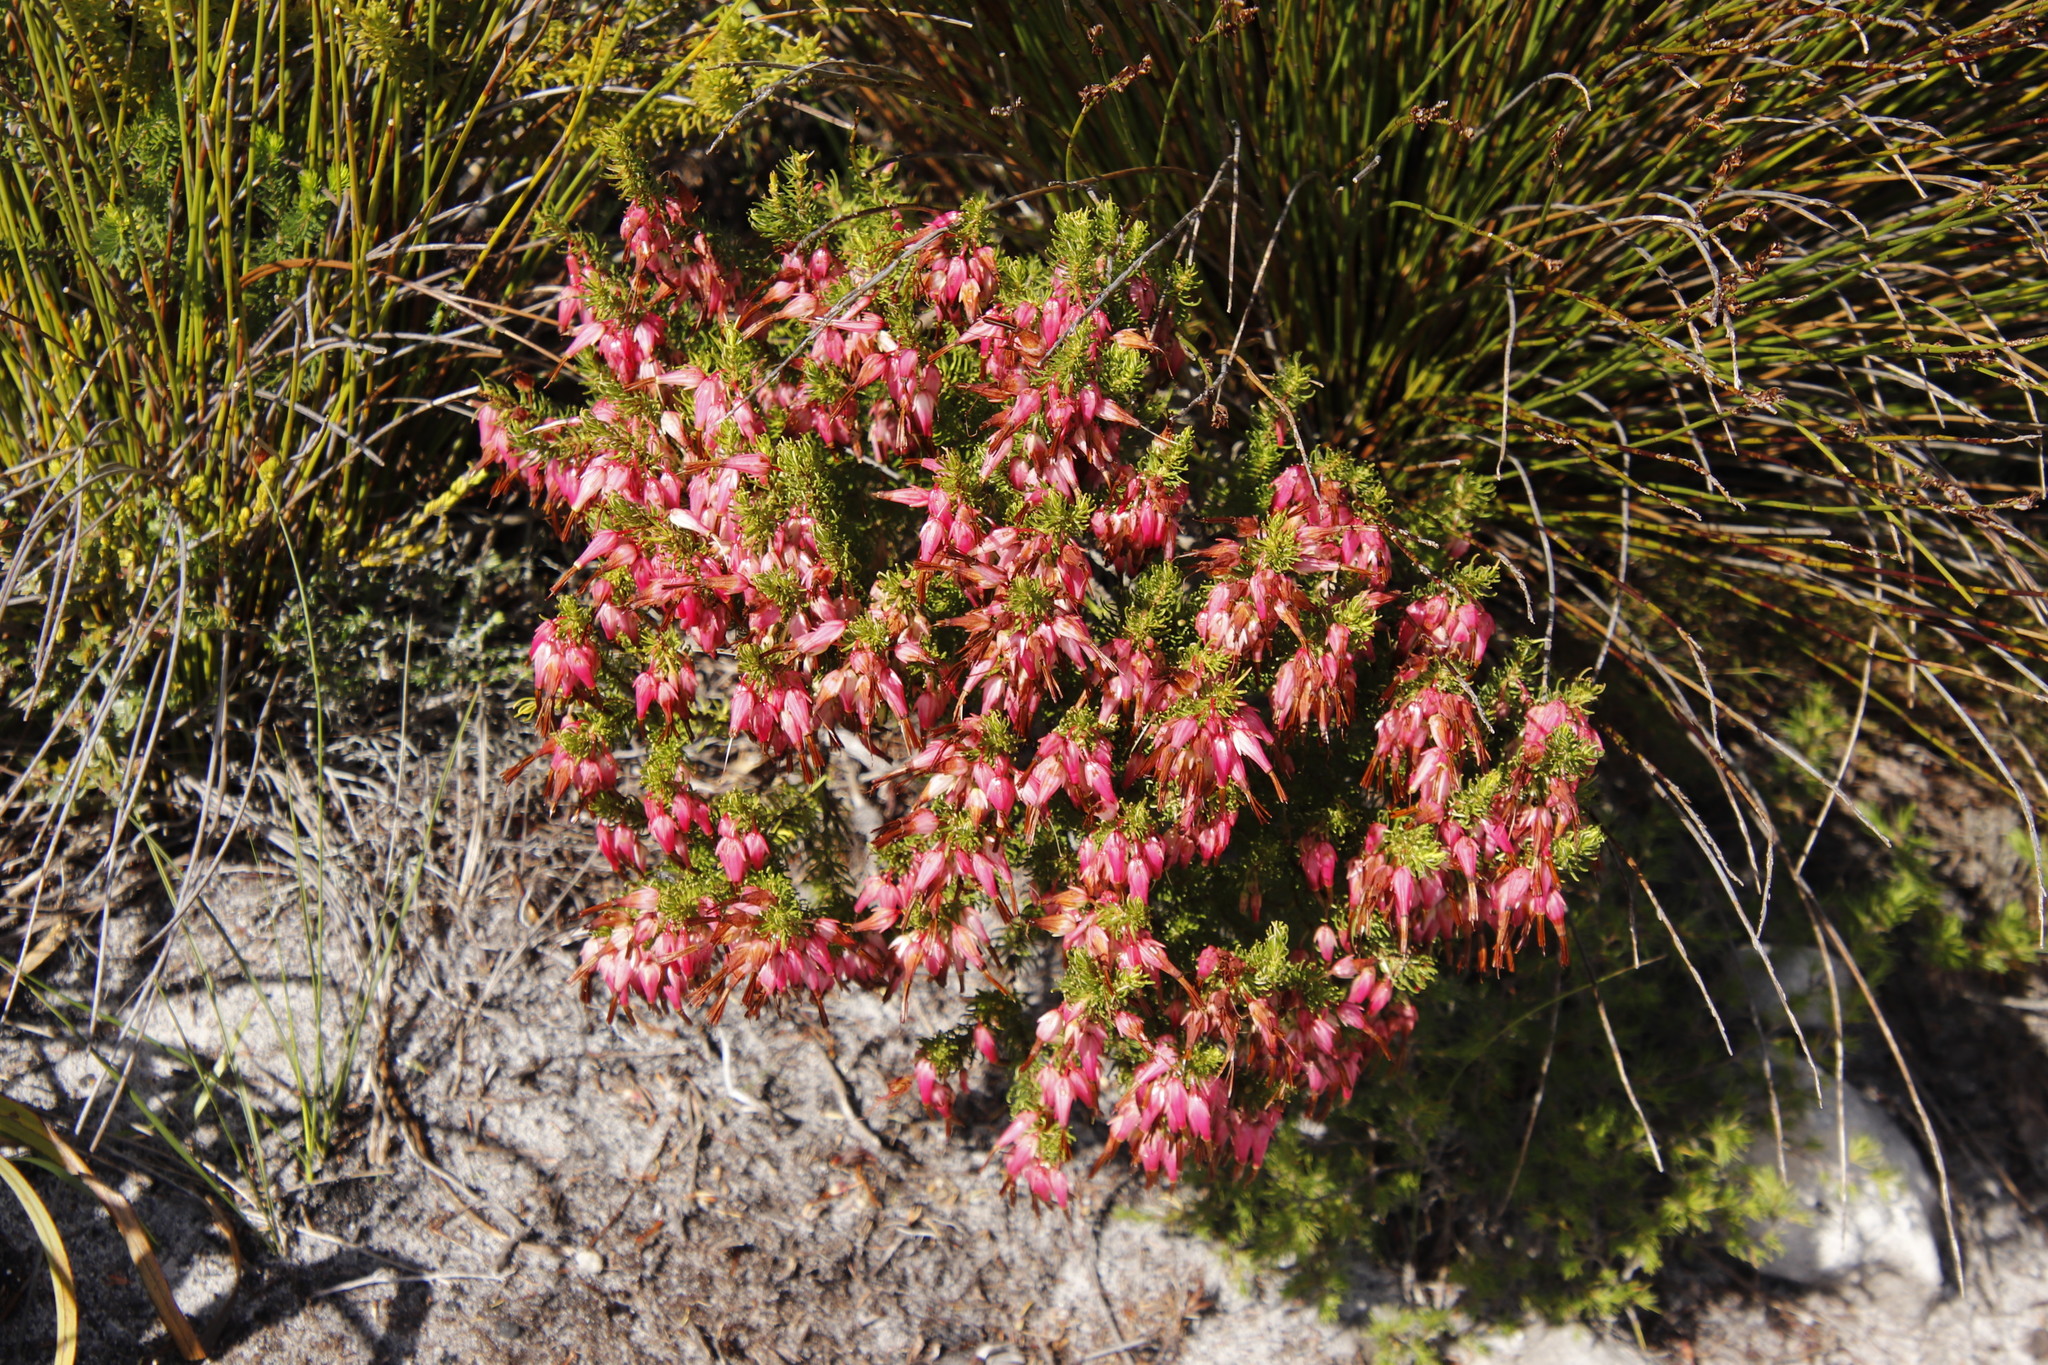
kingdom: Plantae
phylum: Tracheophyta
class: Magnoliopsida
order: Ericales
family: Ericaceae
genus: Erica
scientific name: Erica plukenetii
